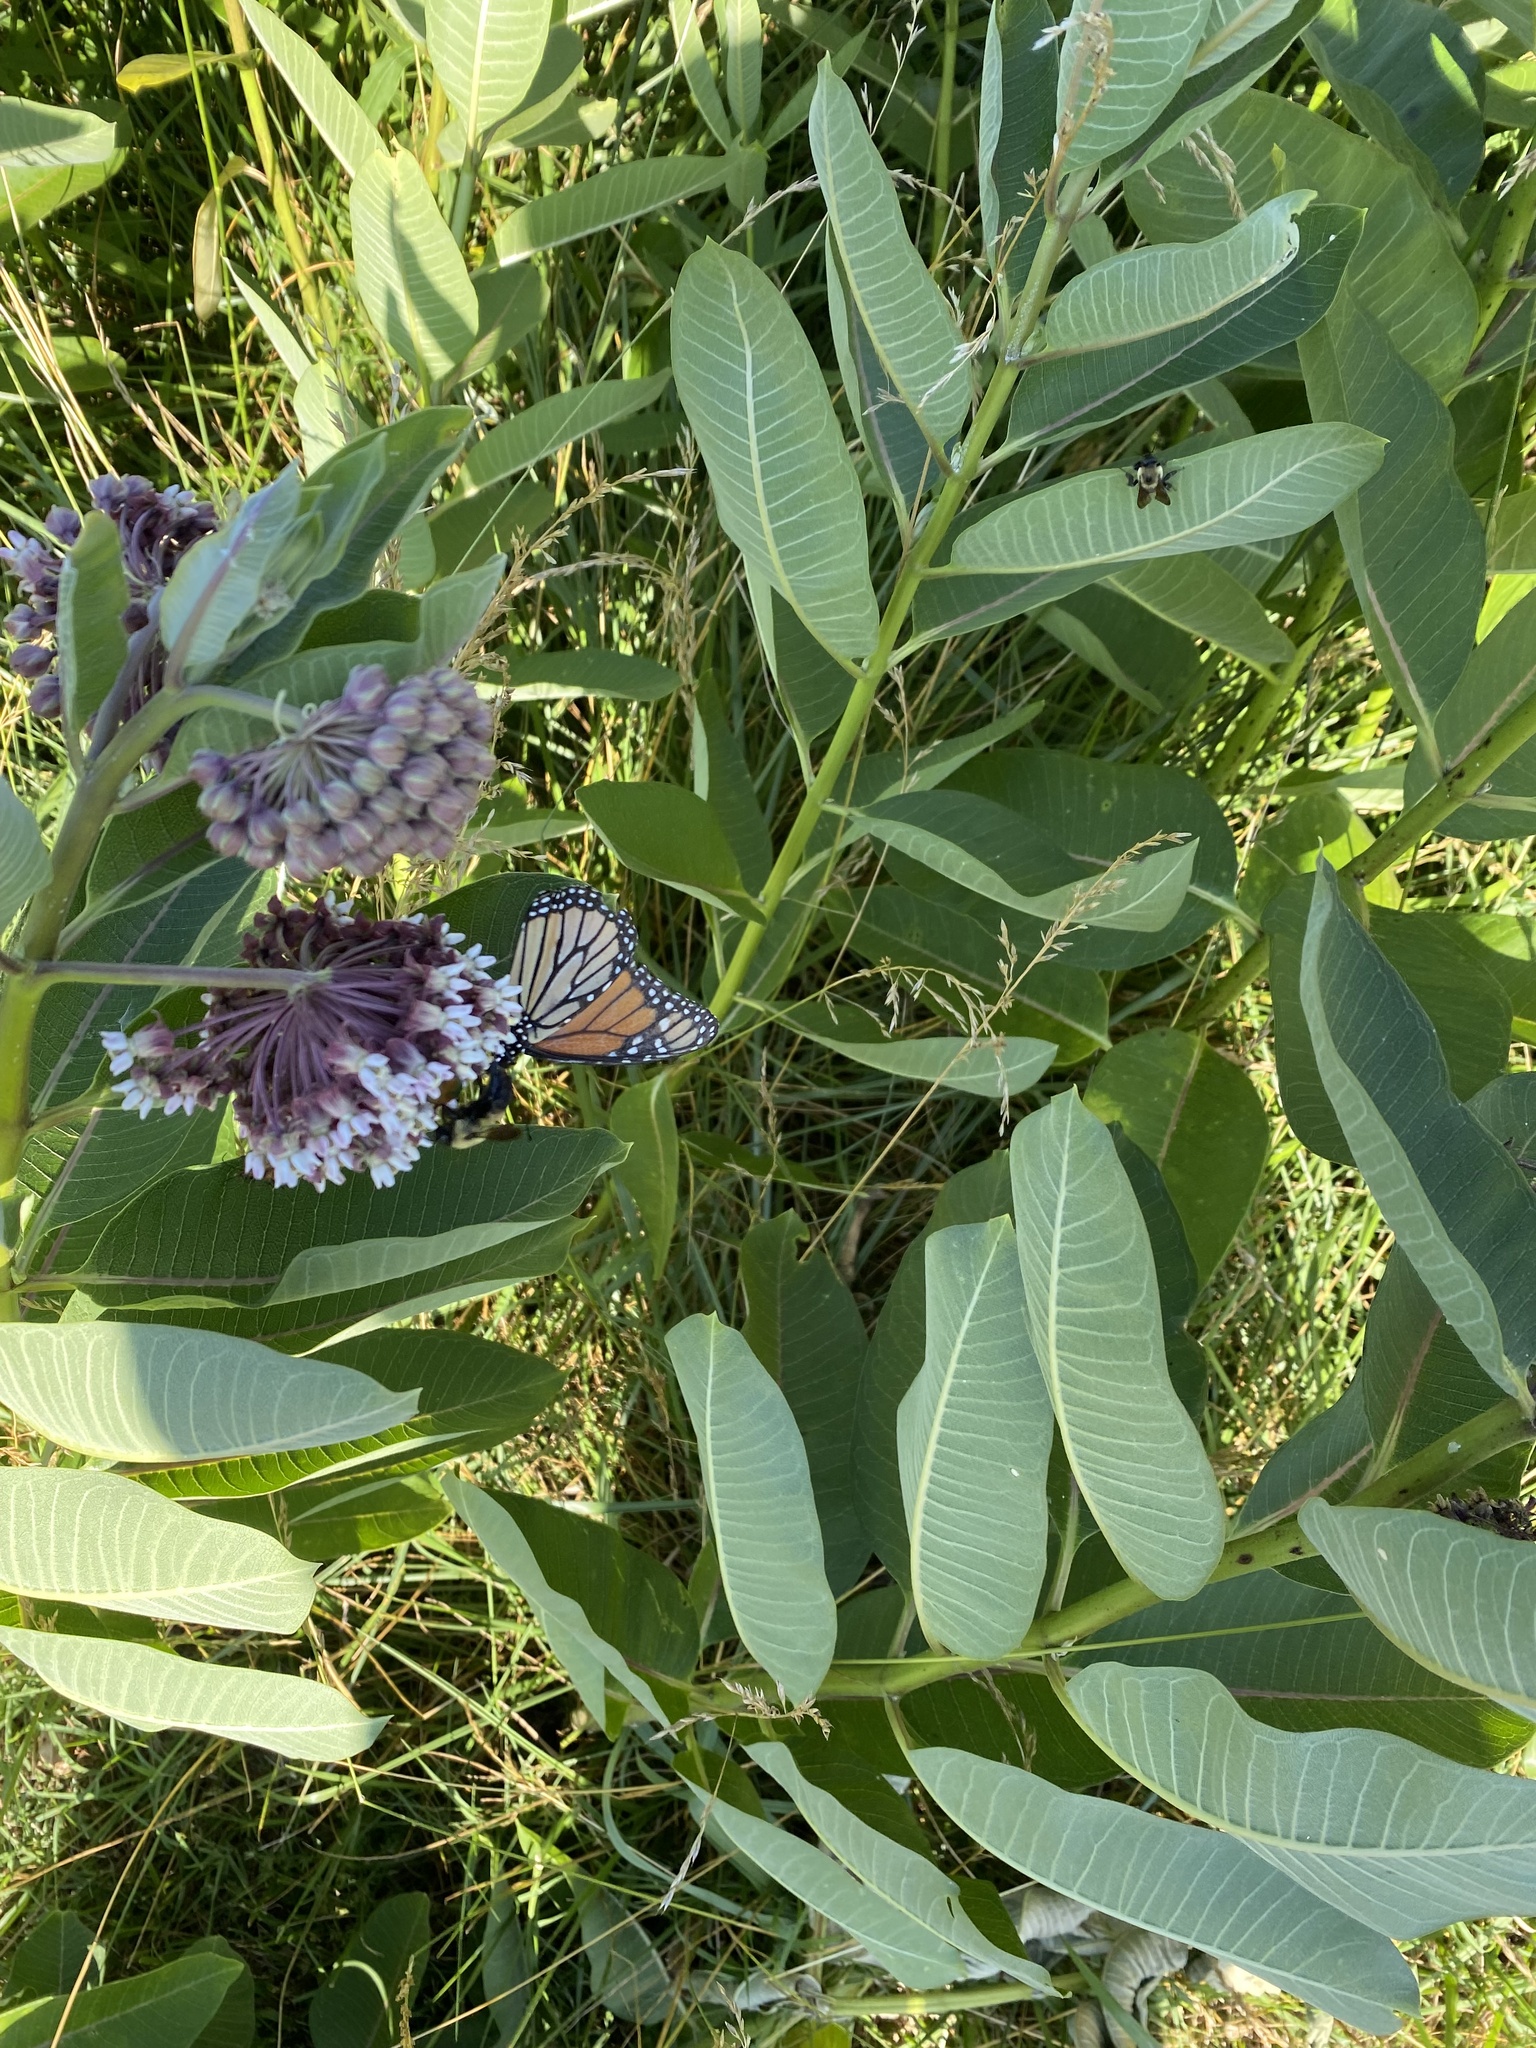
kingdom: Animalia
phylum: Arthropoda
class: Insecta
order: Lepidoptera
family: Nymphalidae
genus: Danaus
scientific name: Danaus plexippus
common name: Monarch
